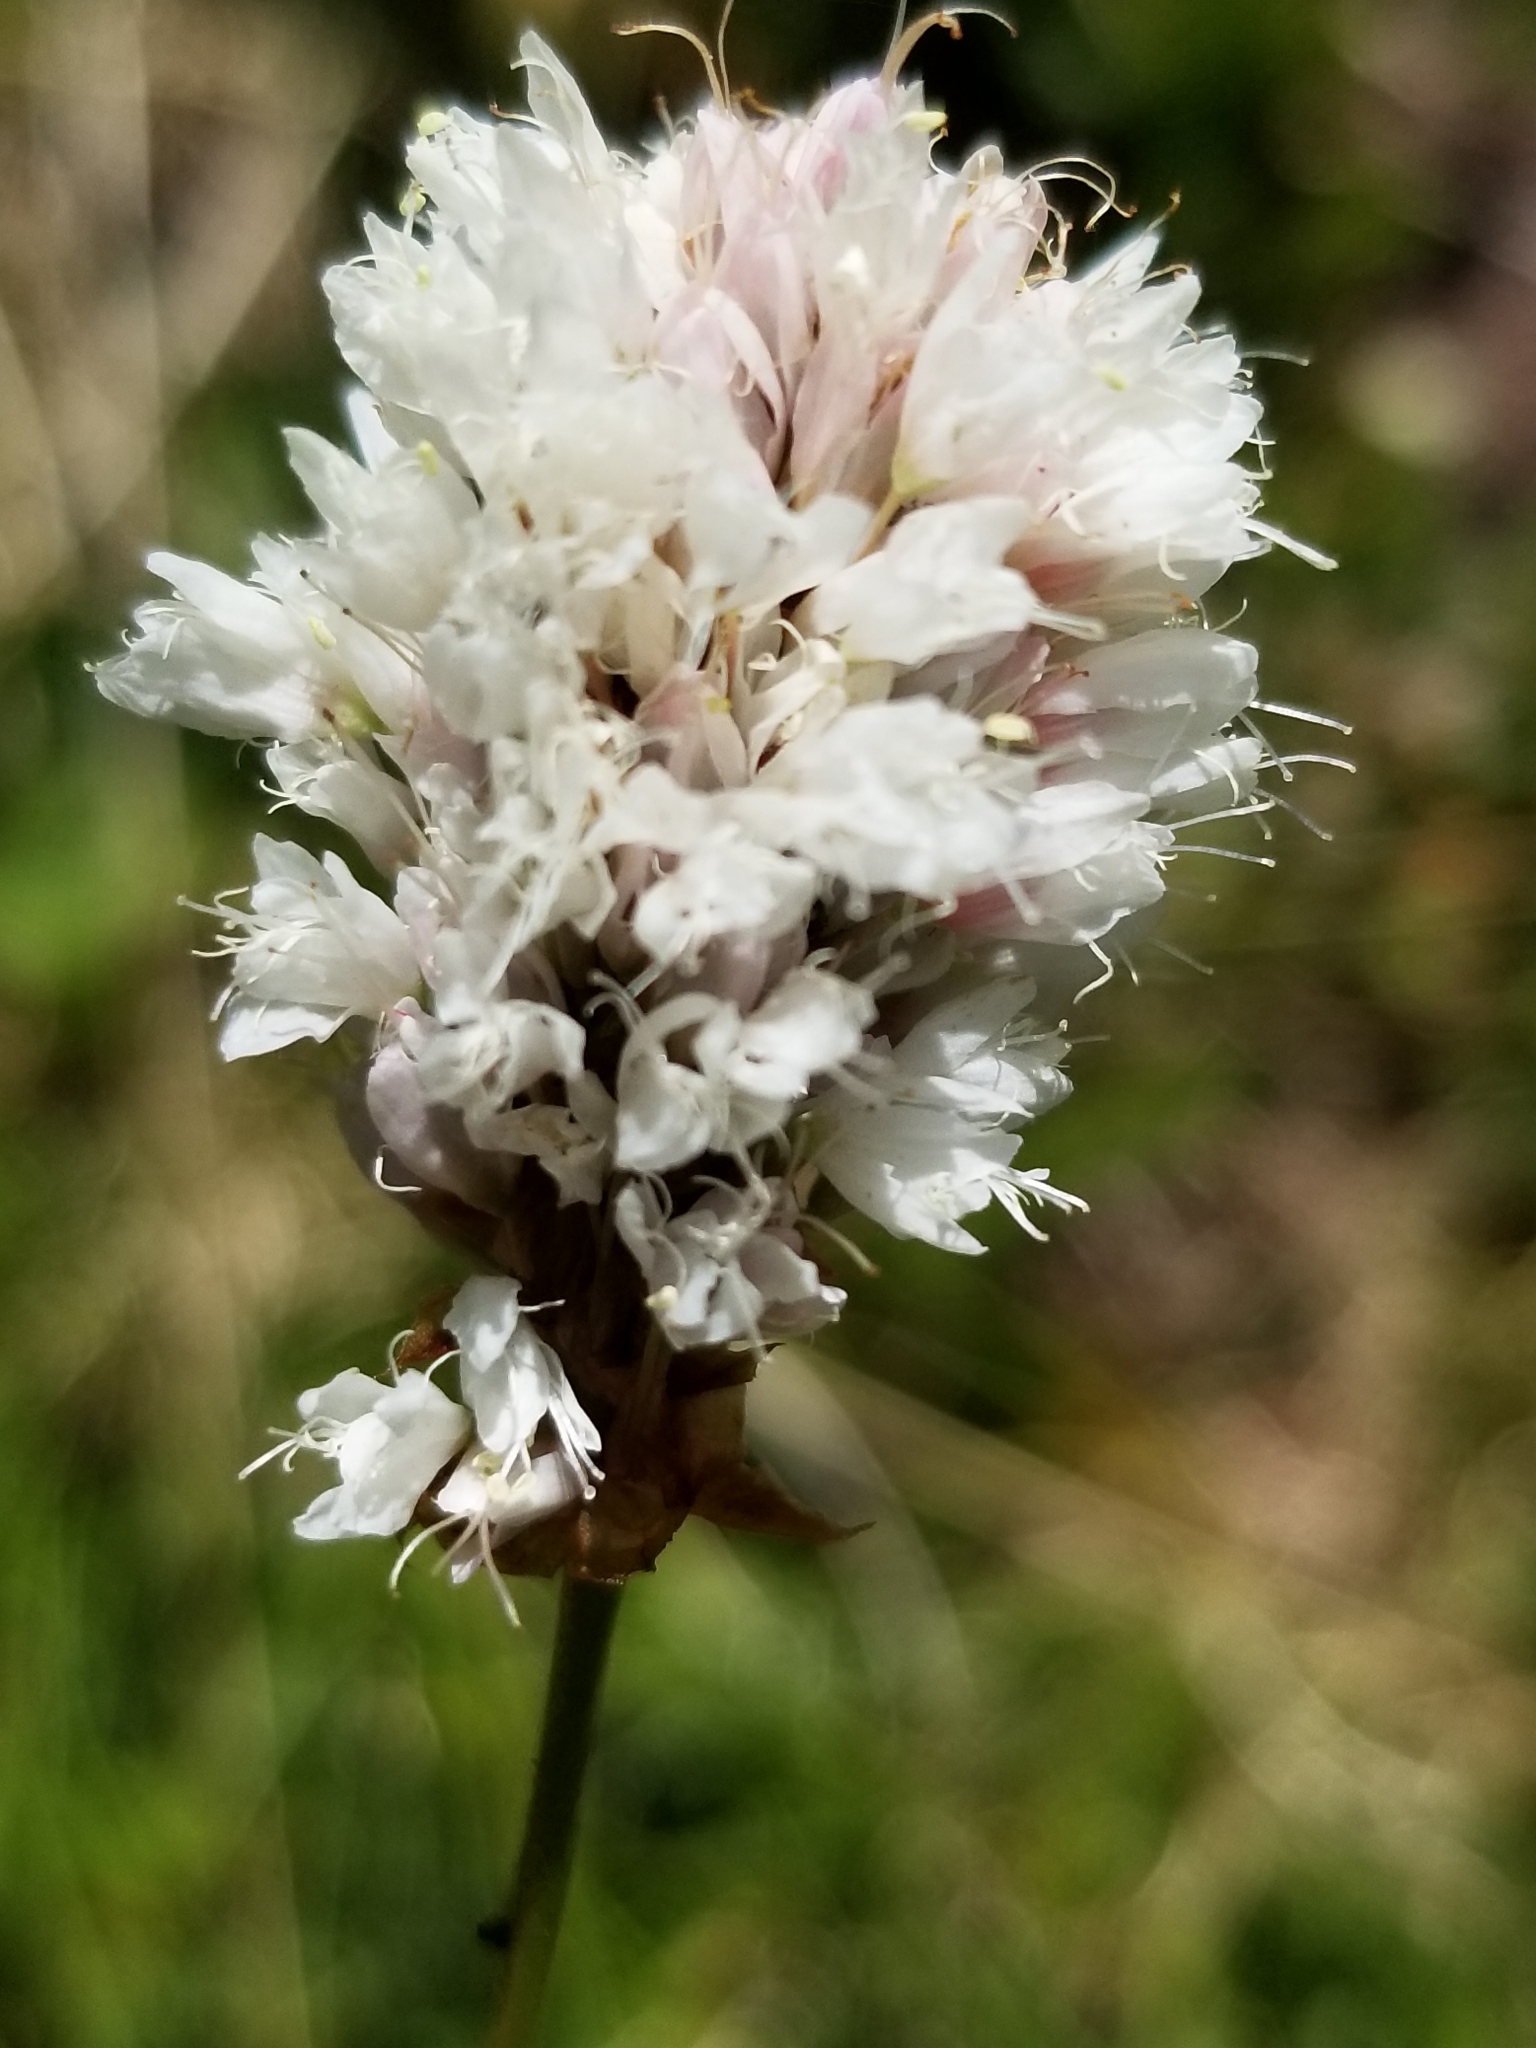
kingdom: Plantae
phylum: Tracheophyta
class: Magnoliopsida
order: Caryophyllales
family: Polygonaceae
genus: Bistorta
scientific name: Bistorta bistortoides
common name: American bistort
